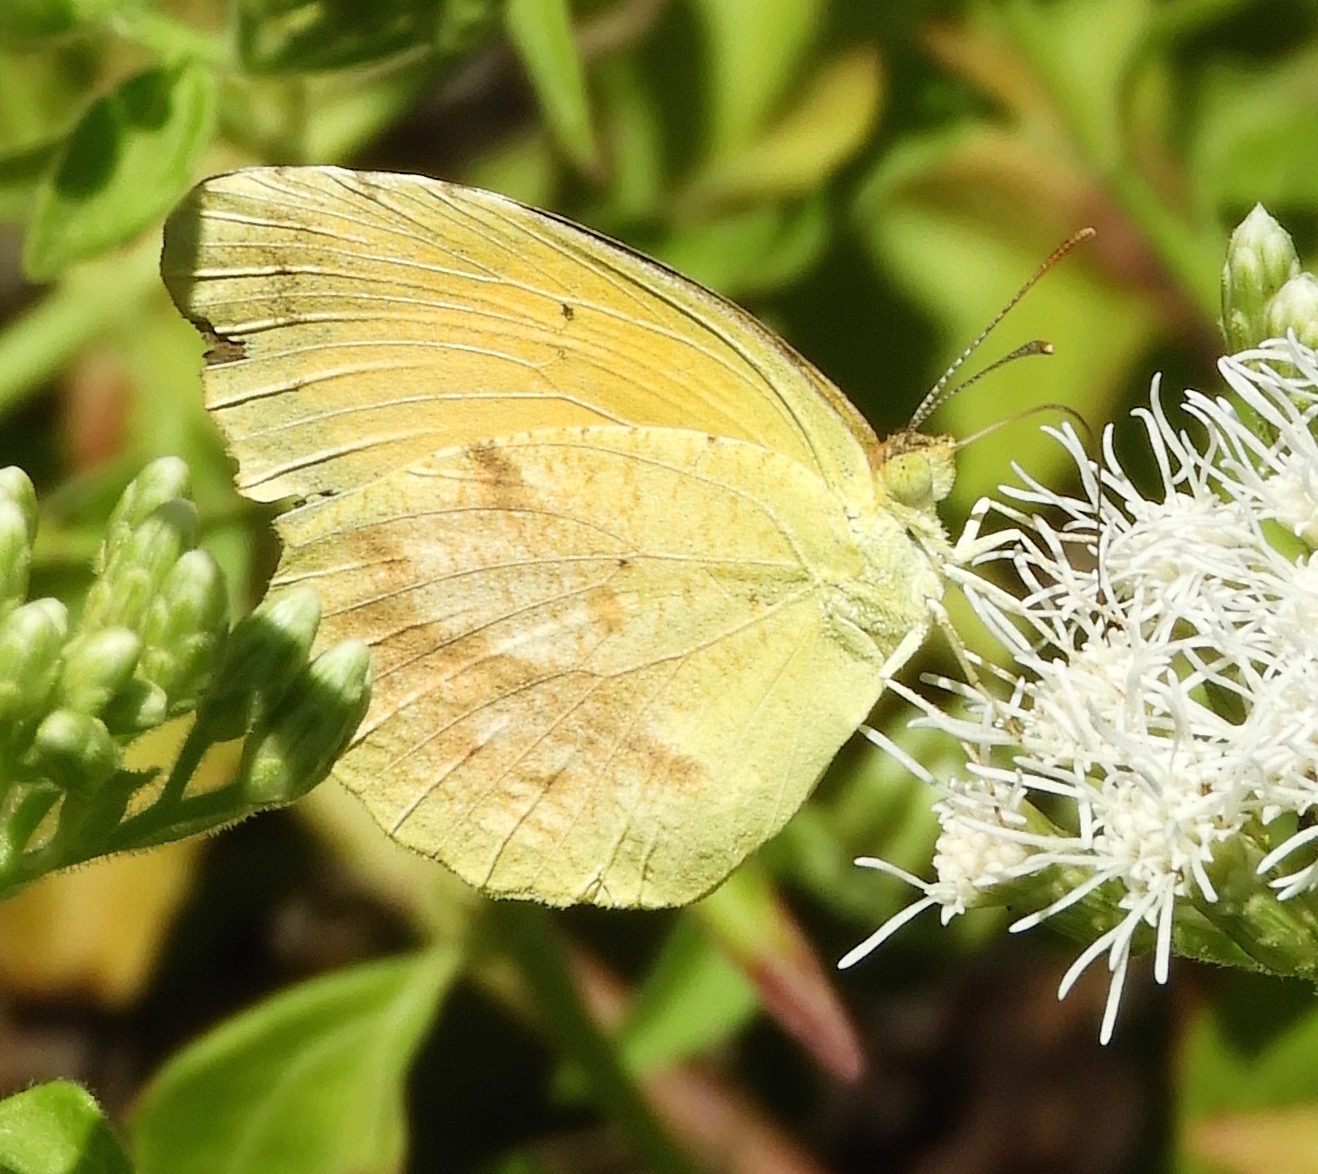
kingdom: Animalia
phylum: Arthropoda
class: Insecta
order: Lepidoptera
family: Pieridae
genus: Abaeis
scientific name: Abaeis nicippe
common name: Sleepy orange
